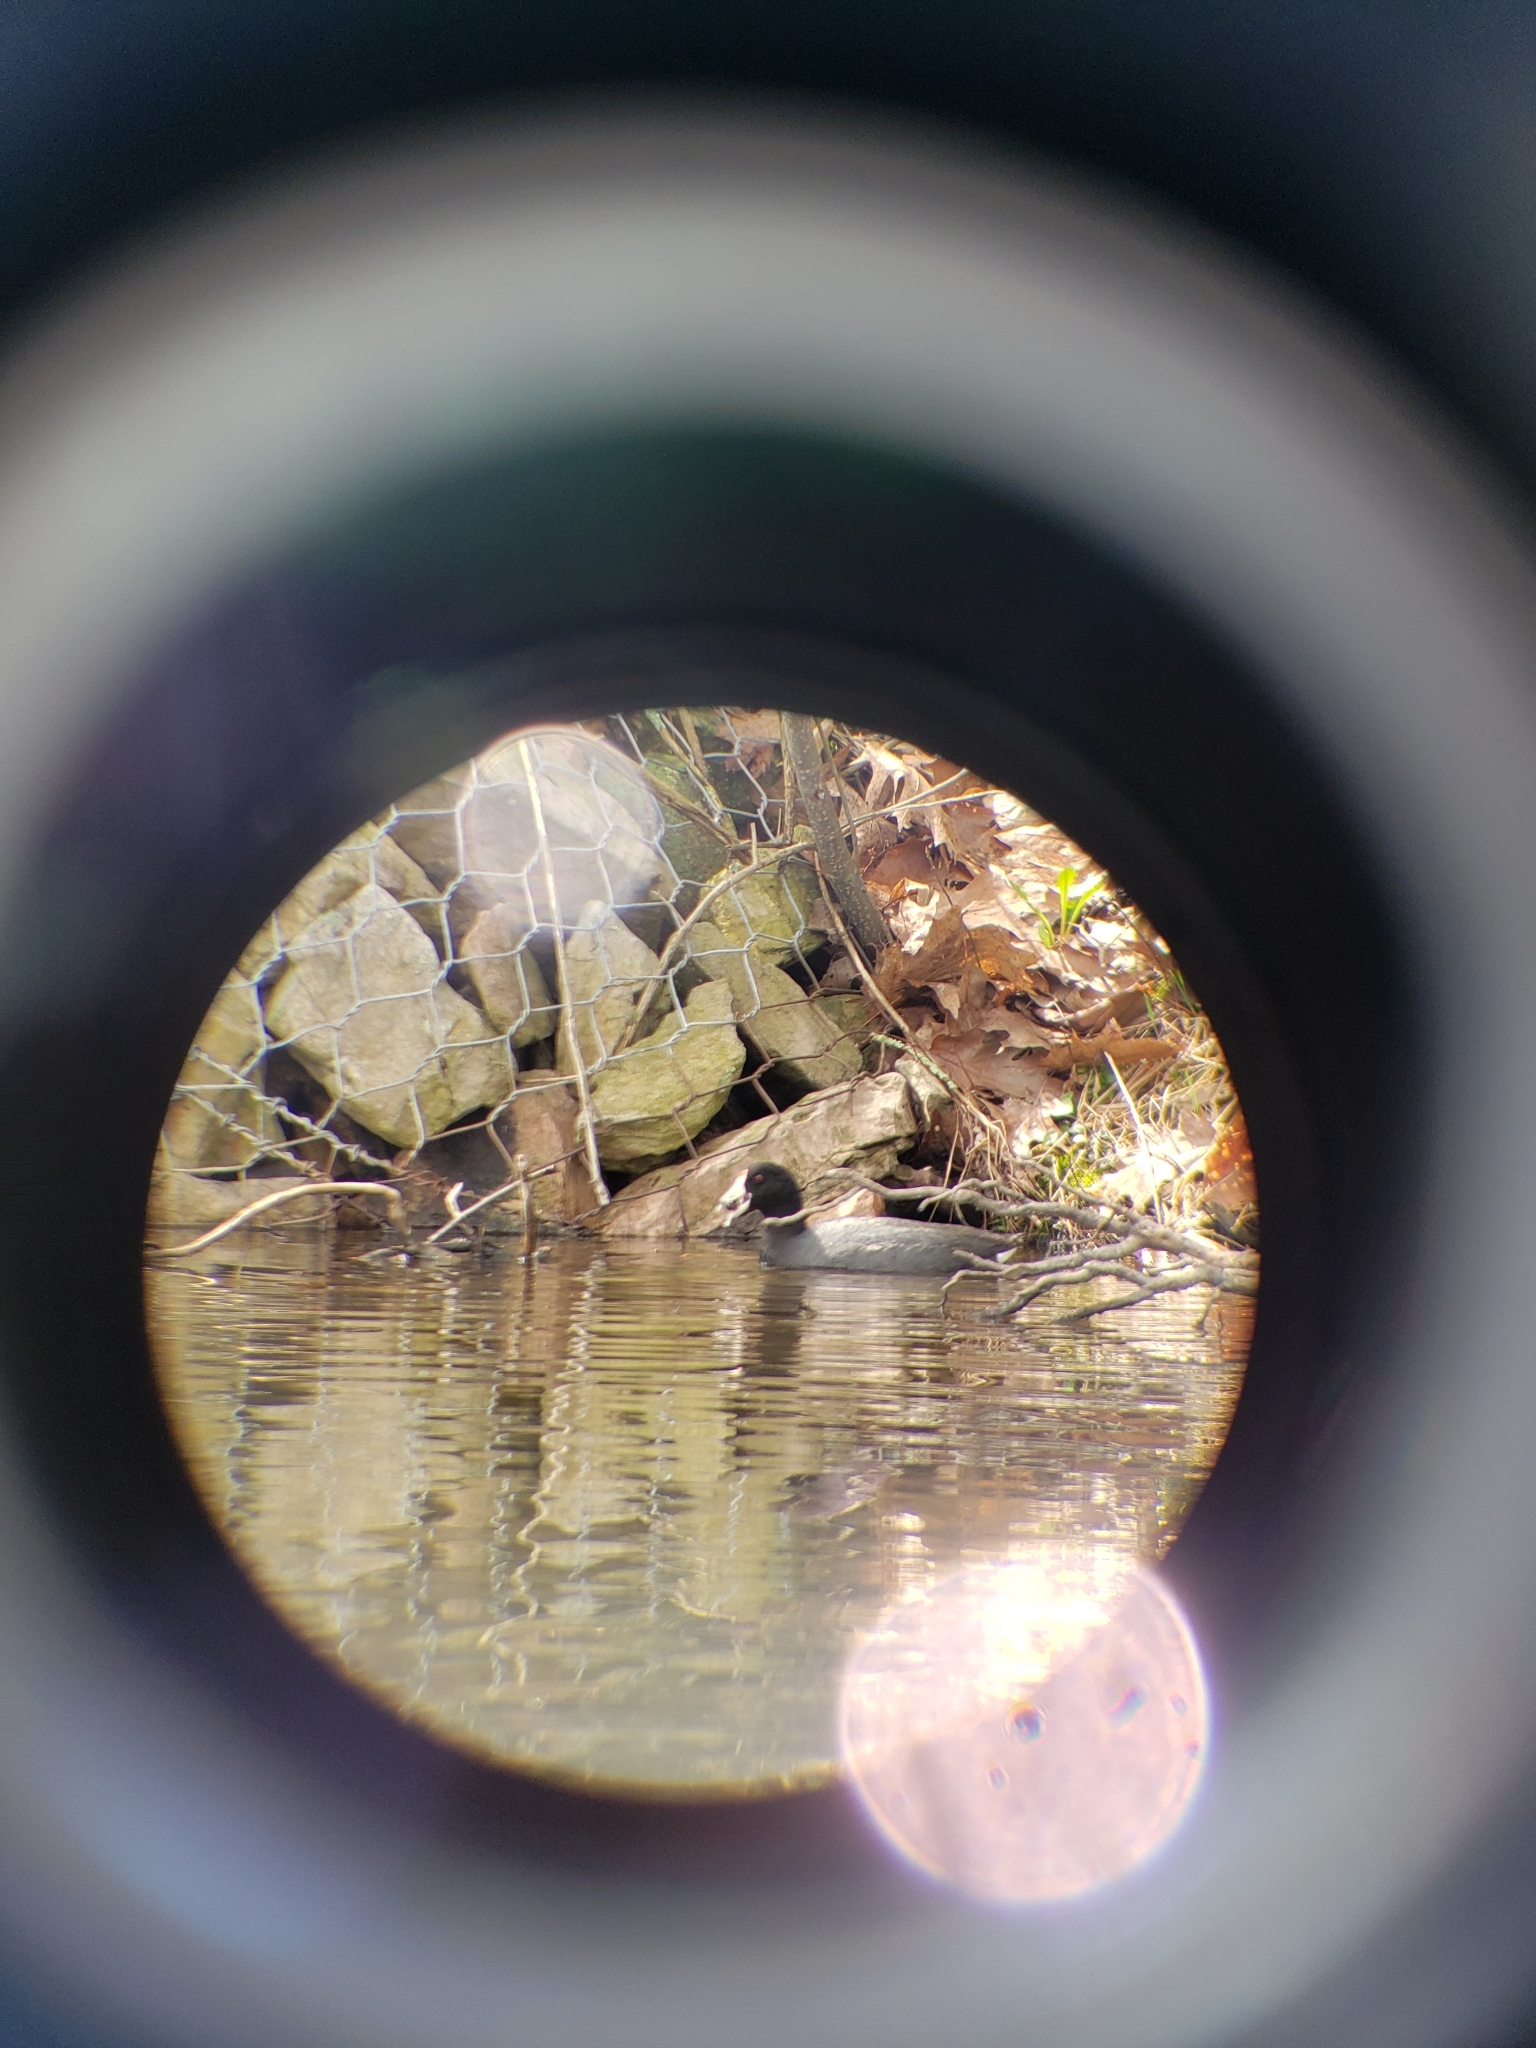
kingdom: Animalia
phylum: Chordata
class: Aves
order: Gruiformes
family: Rallidae
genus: Fulica
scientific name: Fulica americana
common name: American coot
